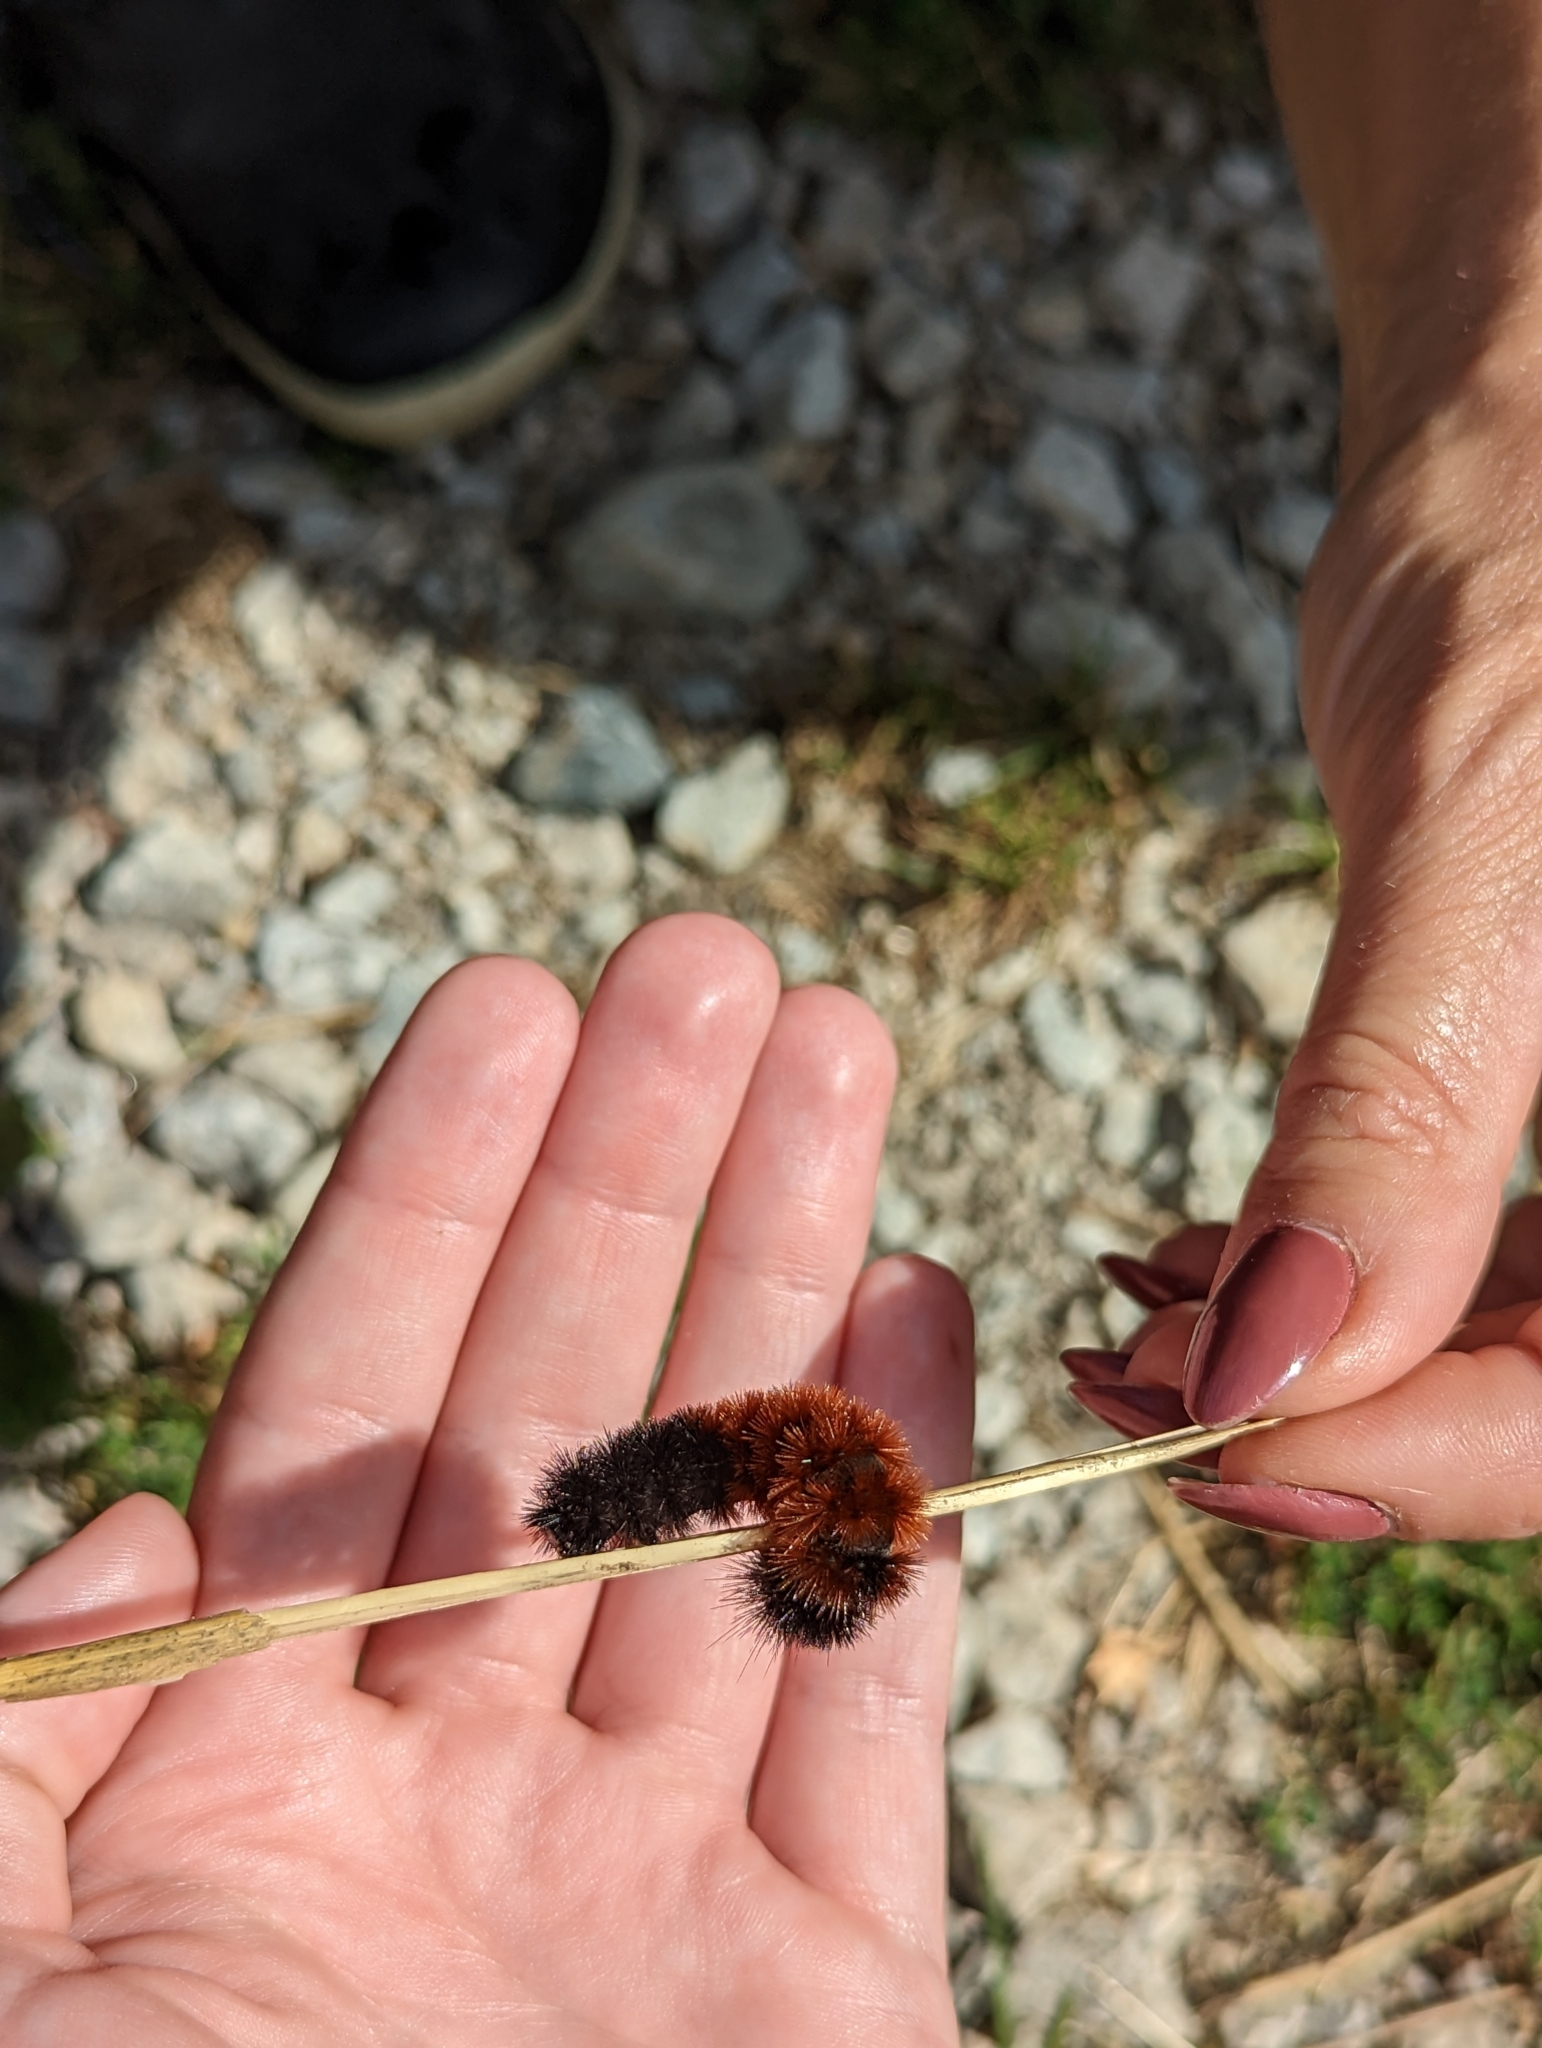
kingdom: Animalia
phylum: Arthropoda
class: Insecta
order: Lepidoptera
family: Erebidae
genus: Pyrrharctia
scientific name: Pyrrharctia isabella
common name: Isabella tiger moth
